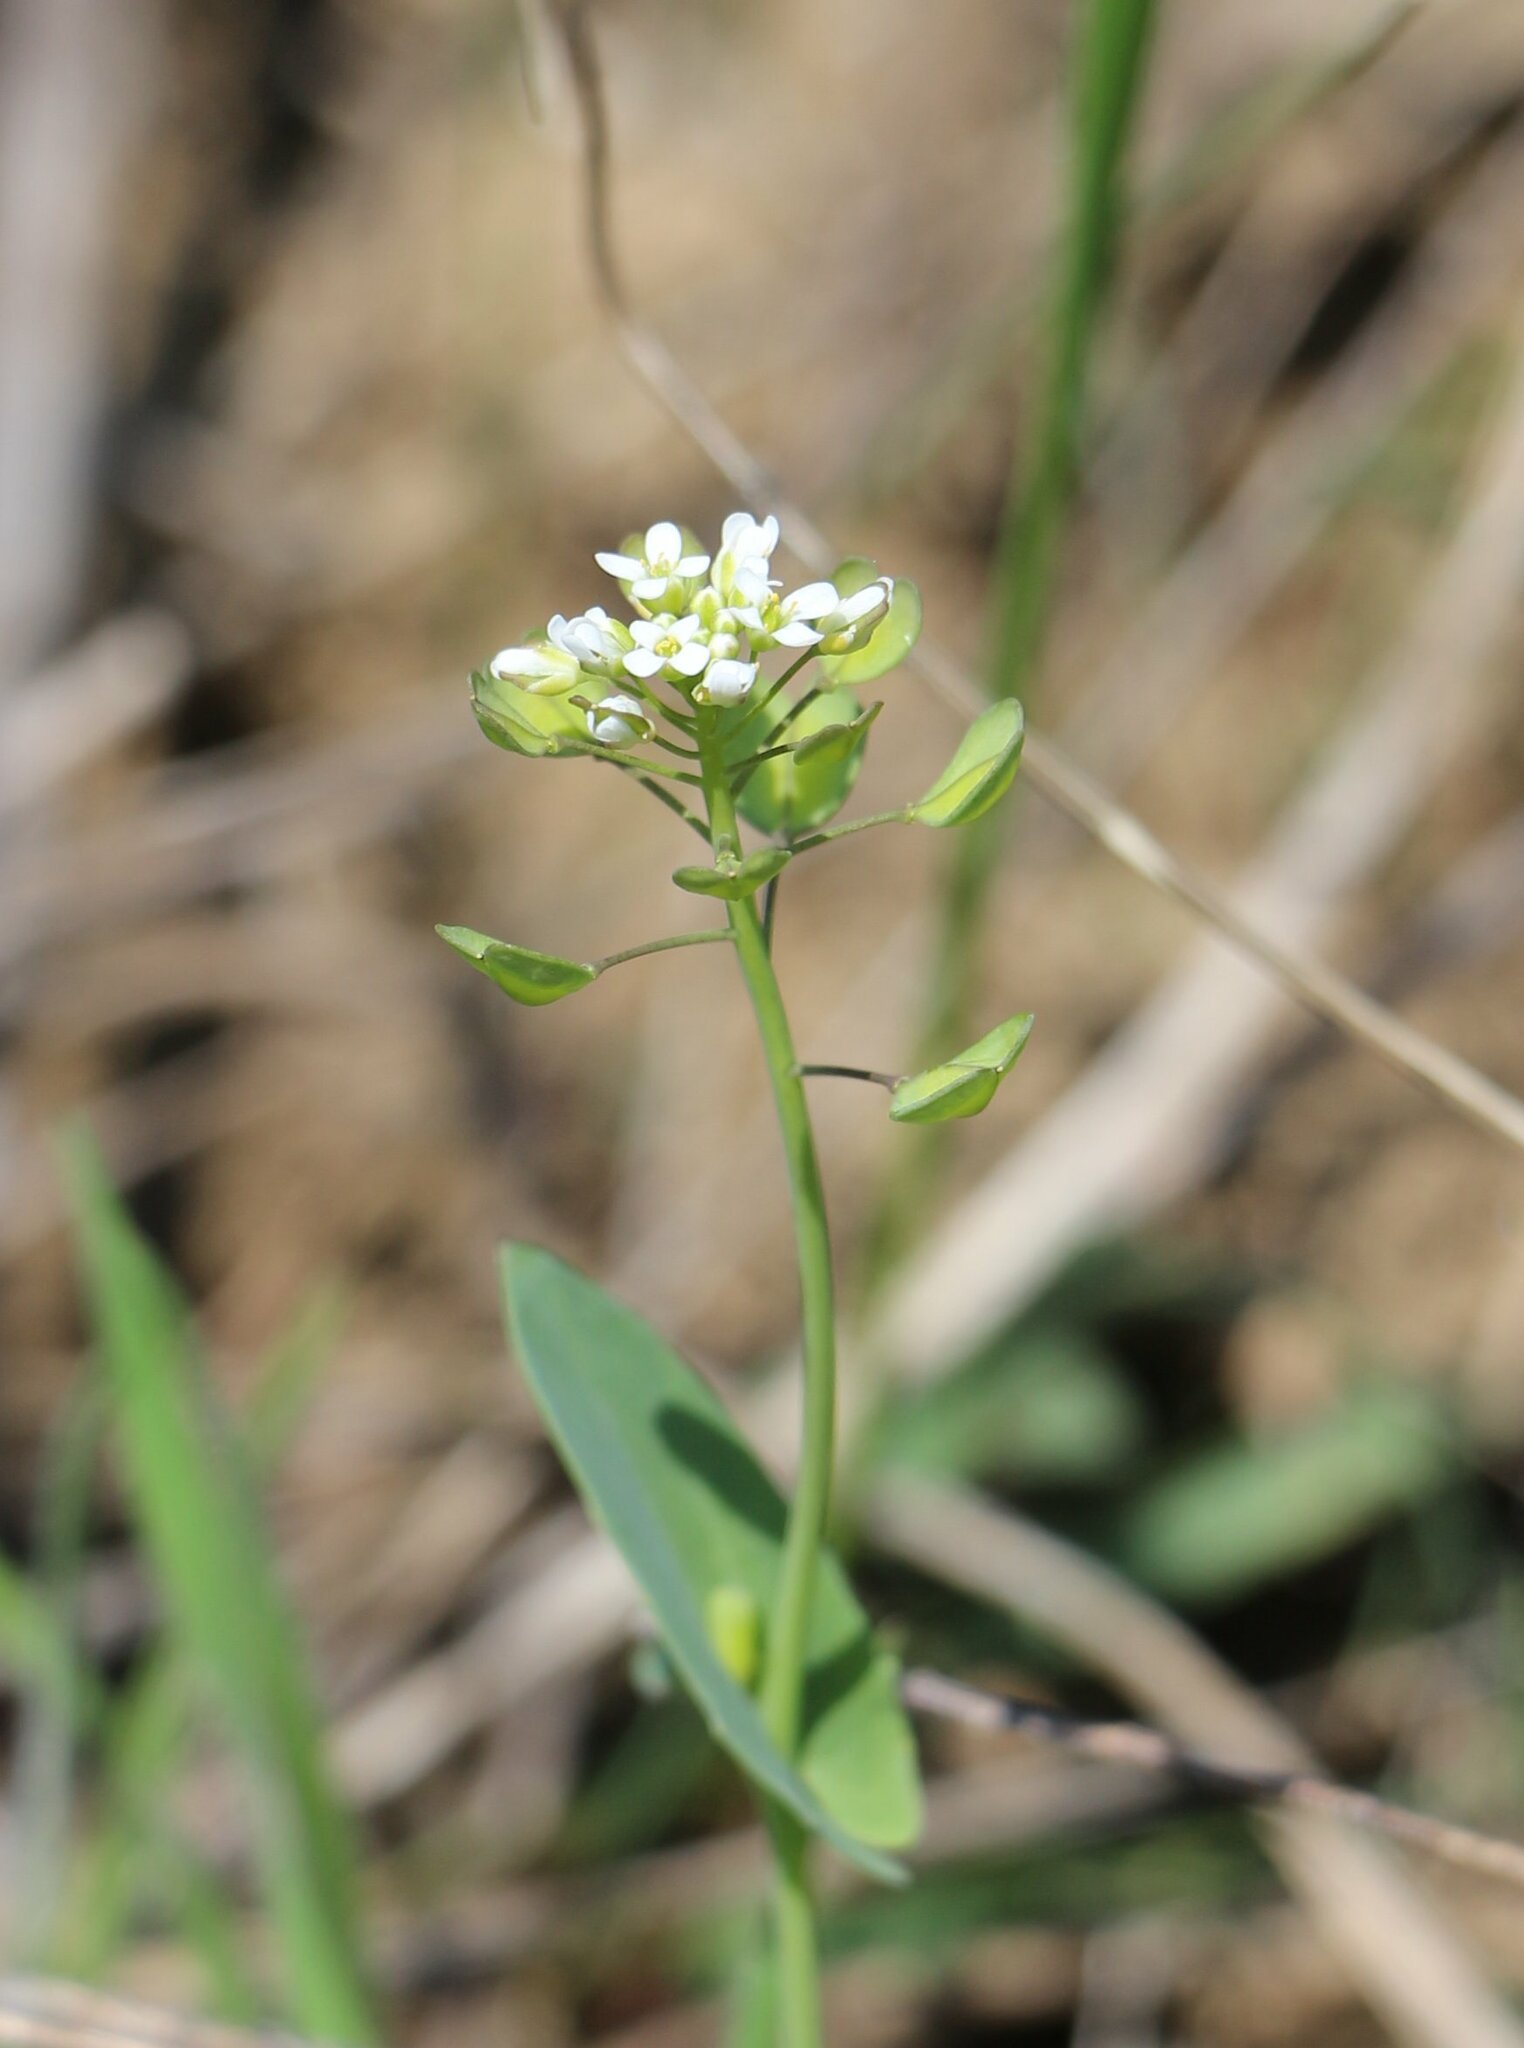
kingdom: Plantae
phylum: Tracheophyta
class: Magnoliopsida
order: Brassicales
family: Brassicaceae
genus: Noccaea
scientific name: Noccaea perfoliata
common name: Perfoliate pennycress
